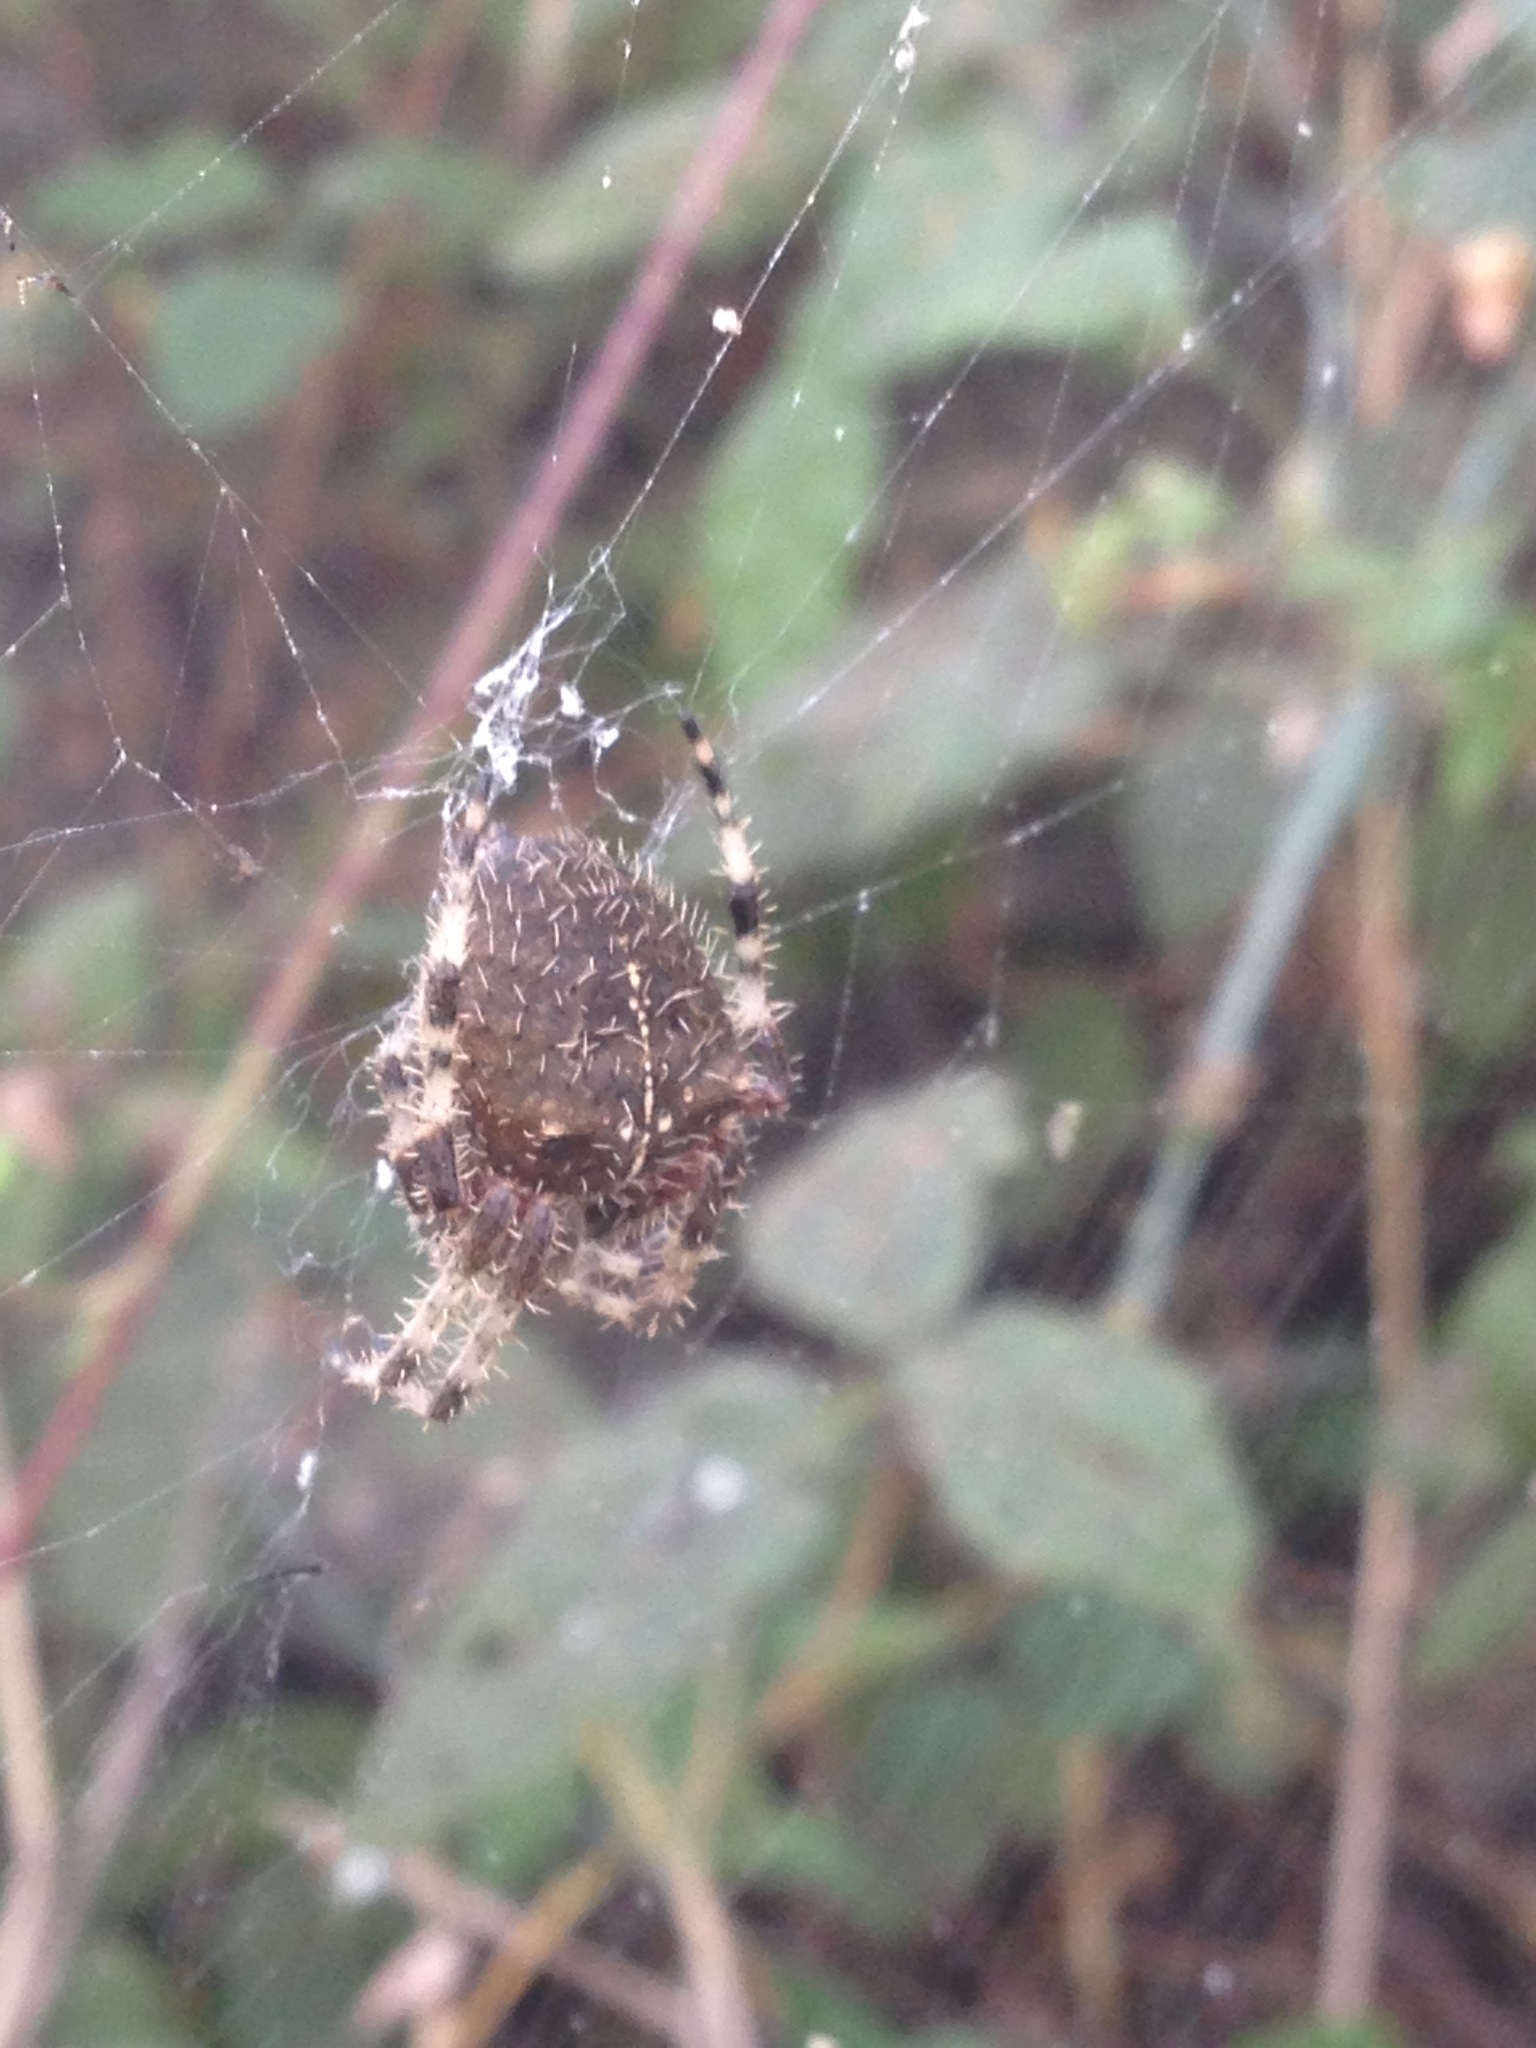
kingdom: Animalia
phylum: Arthropoda
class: Arachnida
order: Araneae
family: Araneidae
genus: Araneus
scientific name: Araneus gemma
